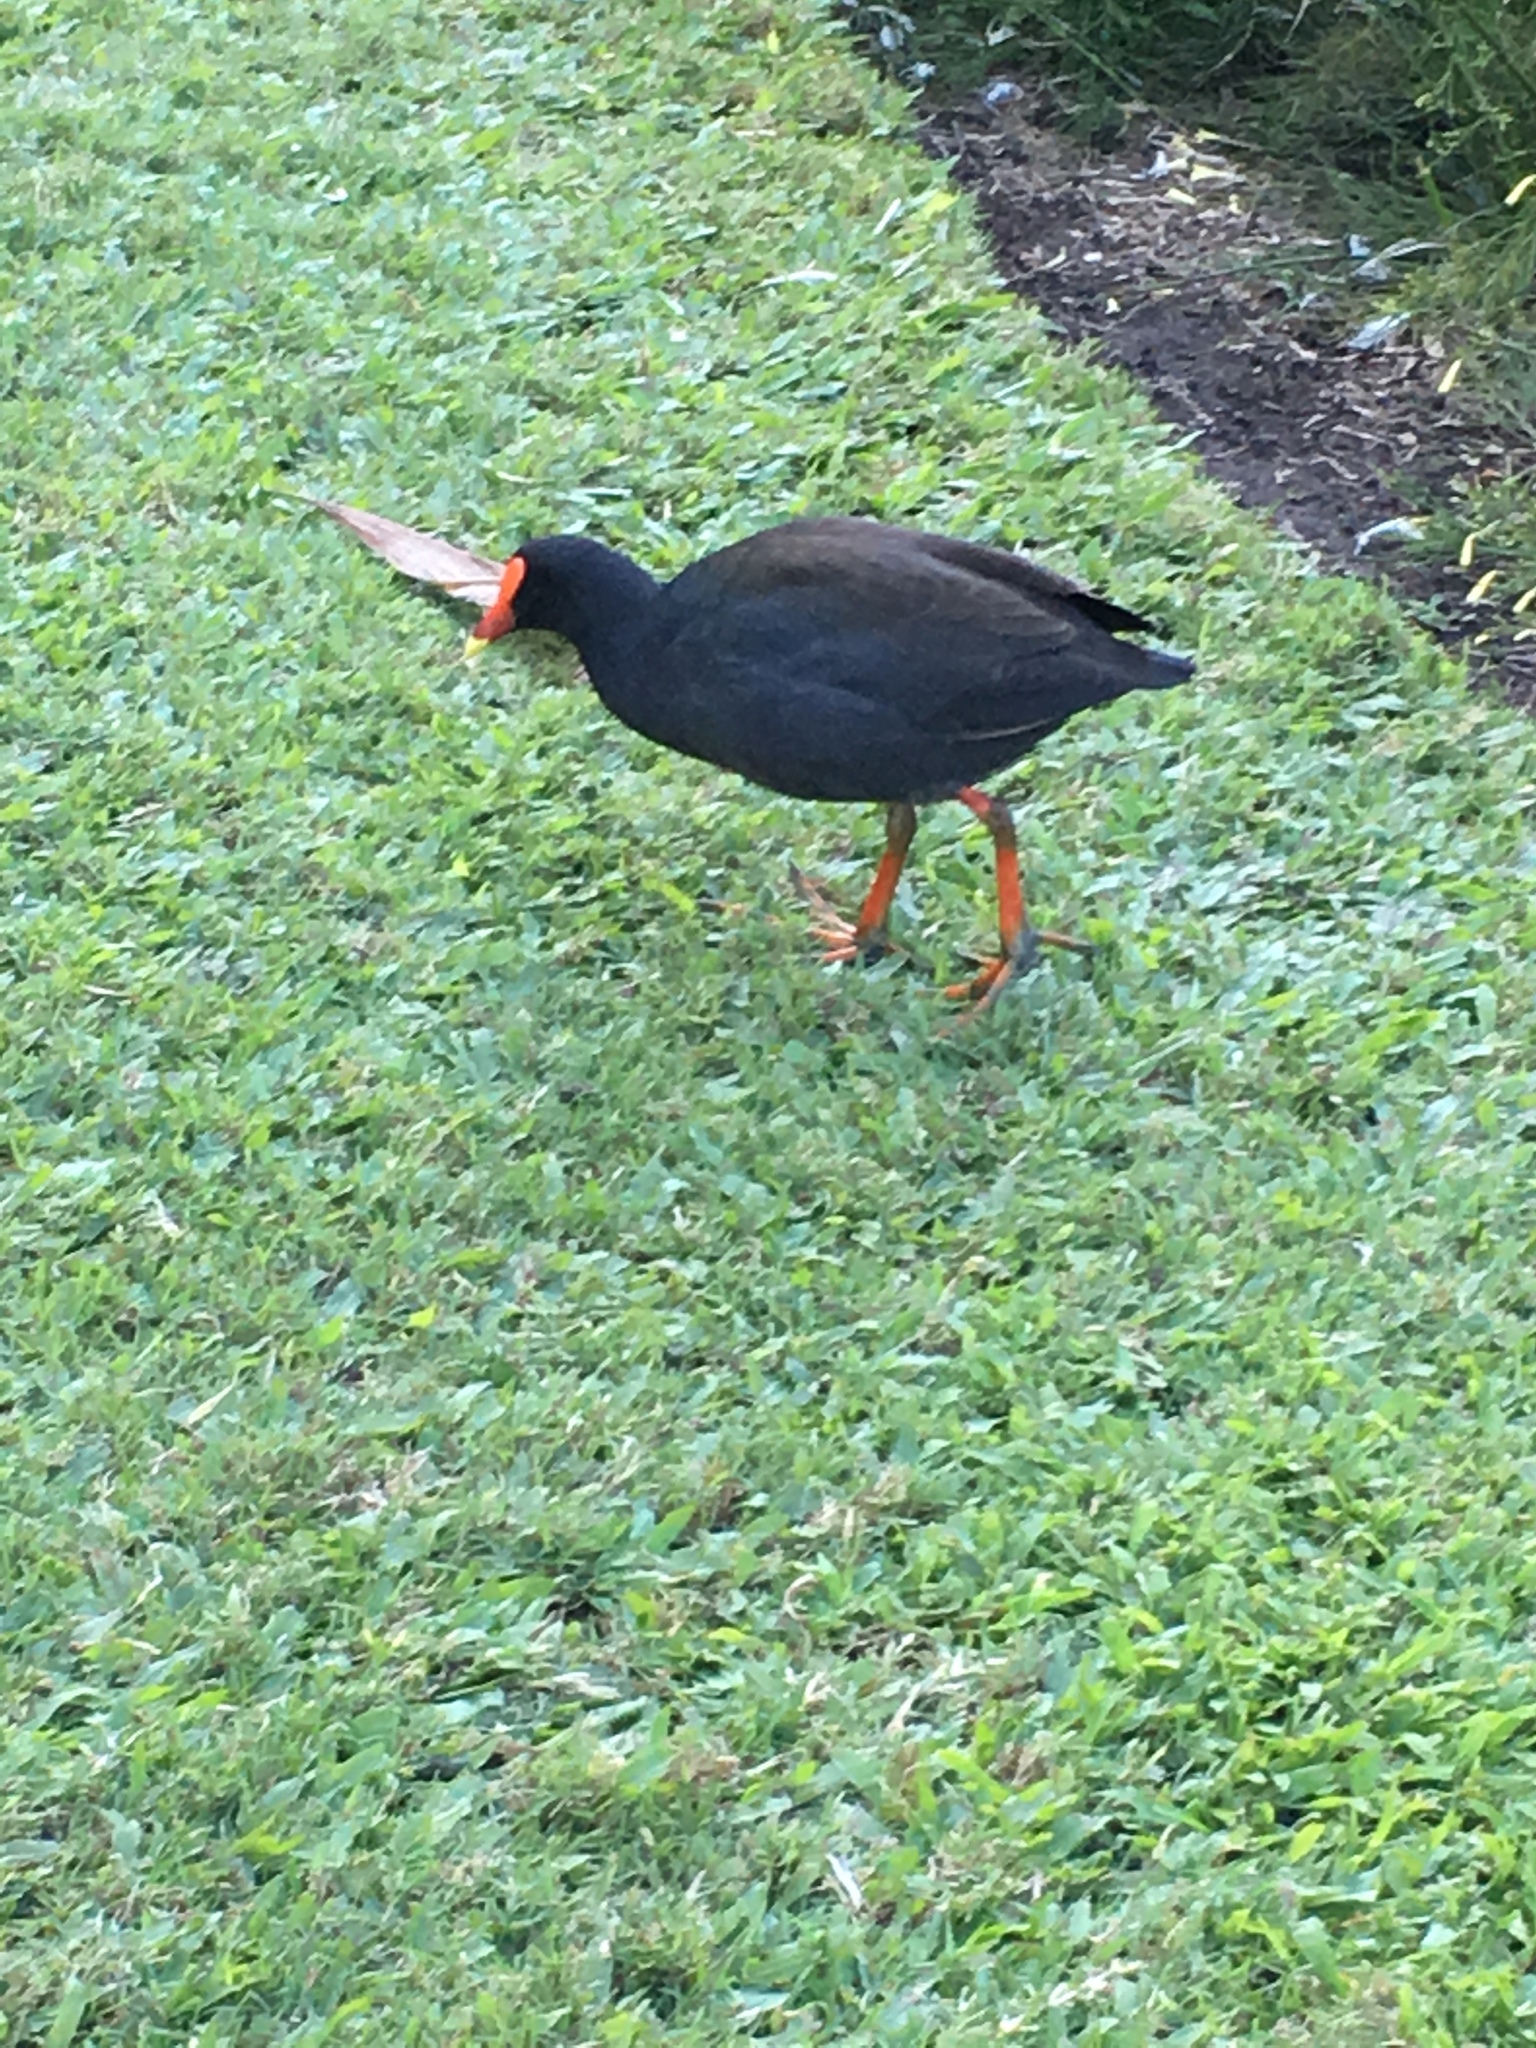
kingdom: Animalia
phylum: Chordata
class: Aves
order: Gruiformes
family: Rallidae
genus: Gallinula
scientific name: Gallinula tenebrosa
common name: Dusky moorhen
